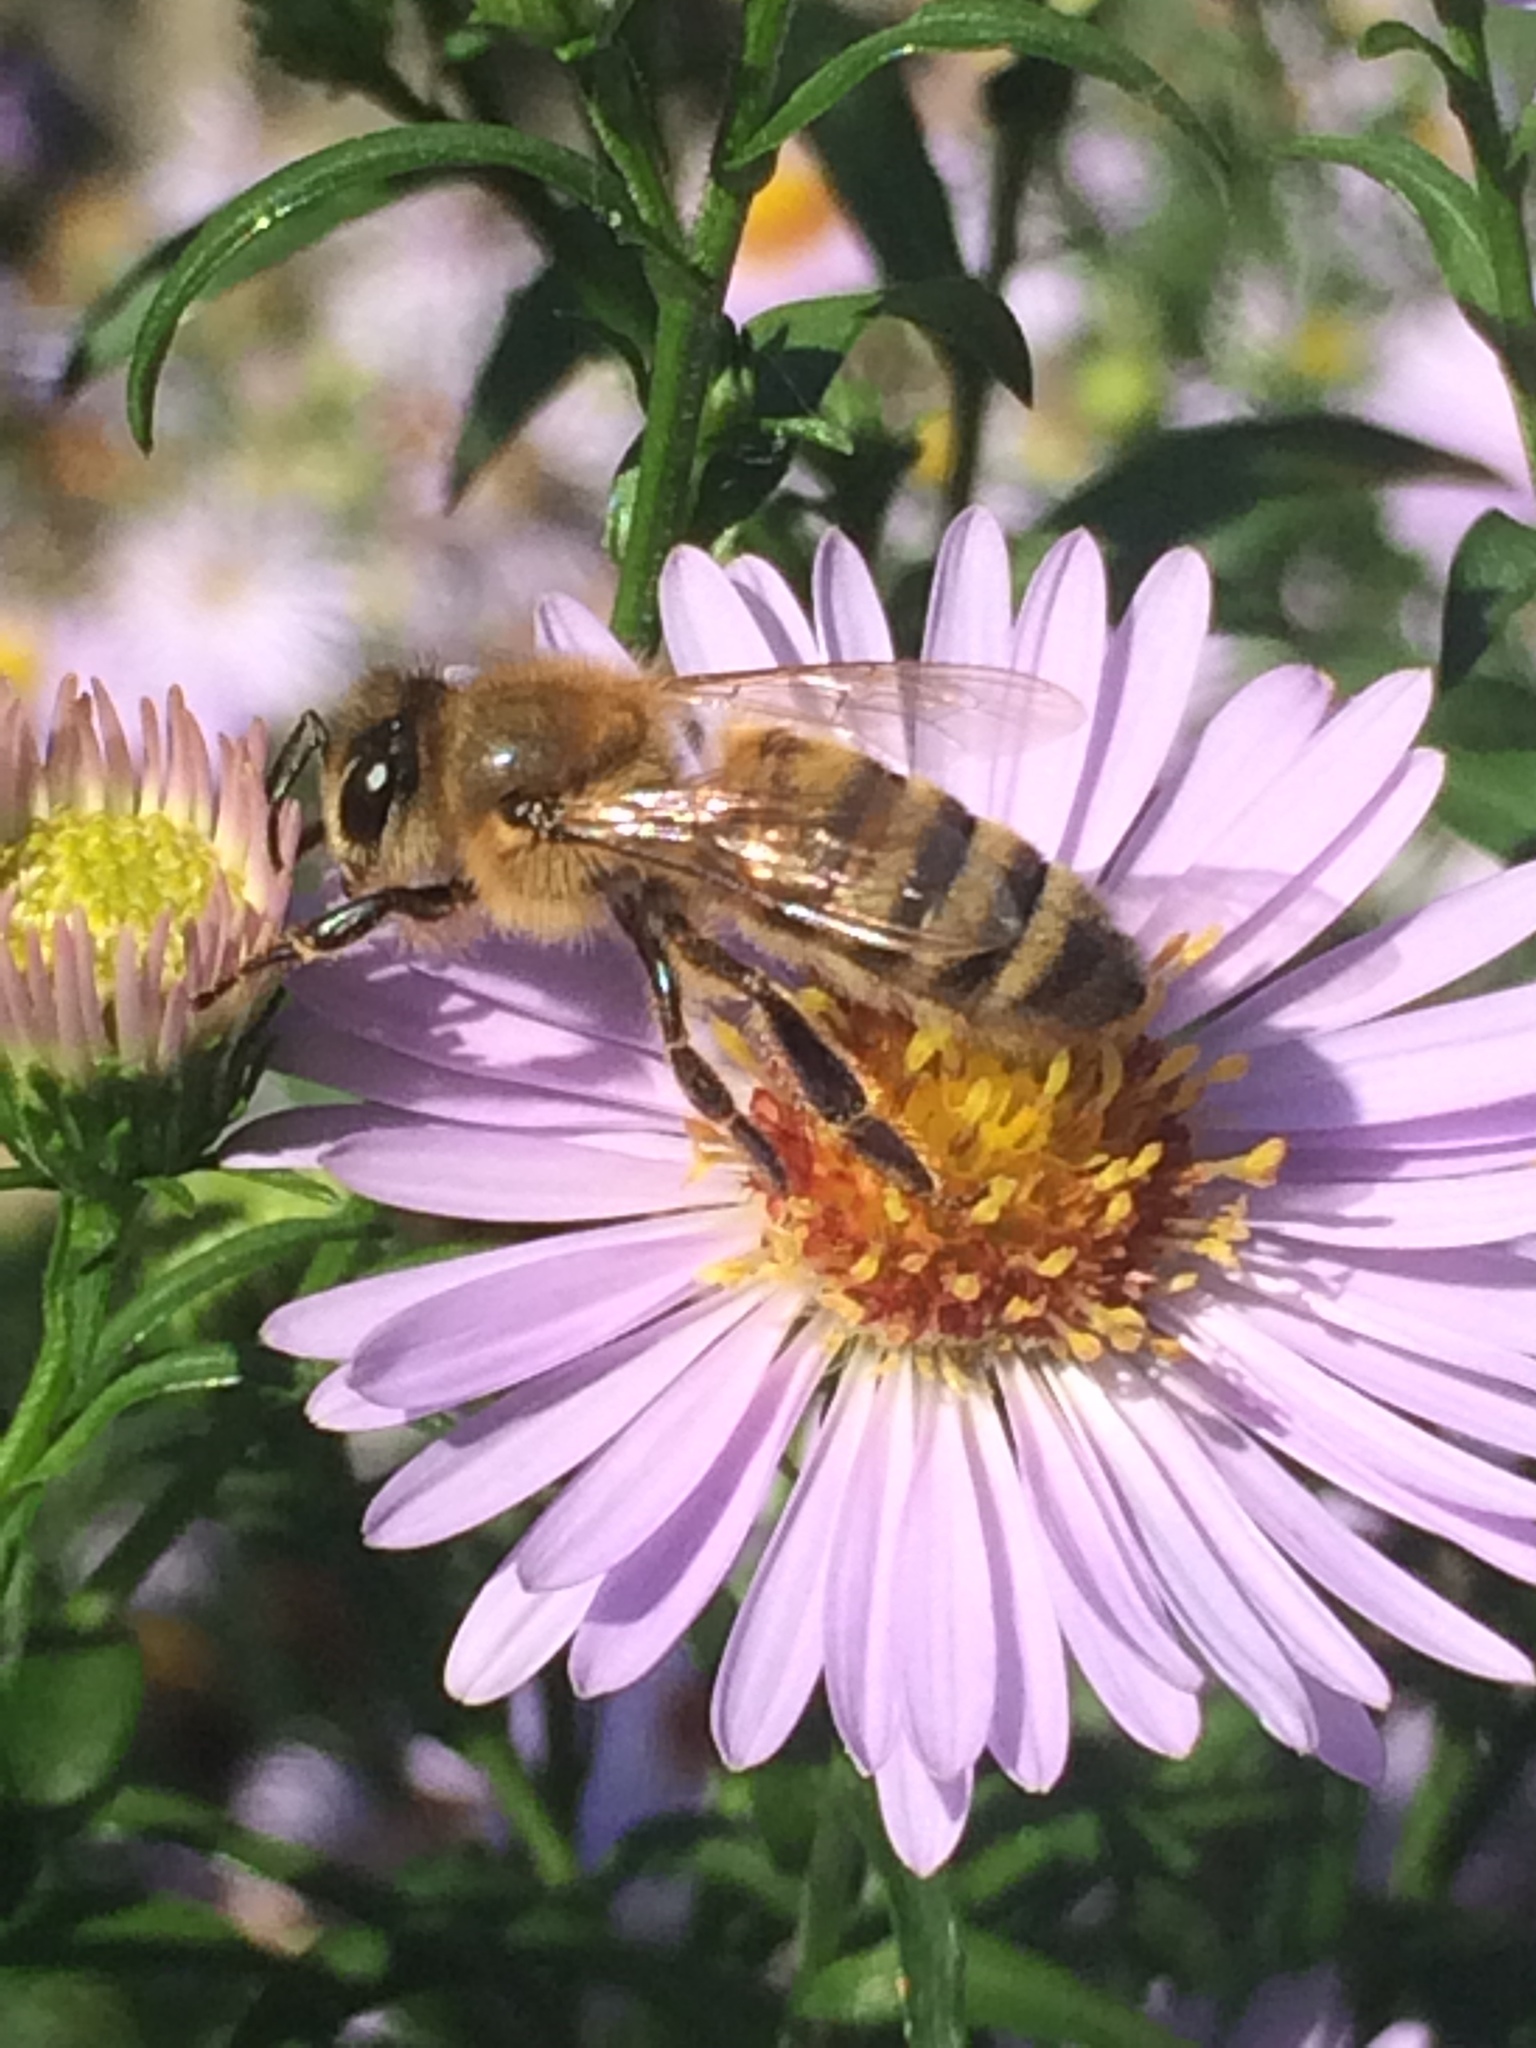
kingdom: Animalia
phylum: Arthropoda
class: Insecta
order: Hymenoptera
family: Apidae
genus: Apis
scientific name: Apis mellifera
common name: Honey bee
